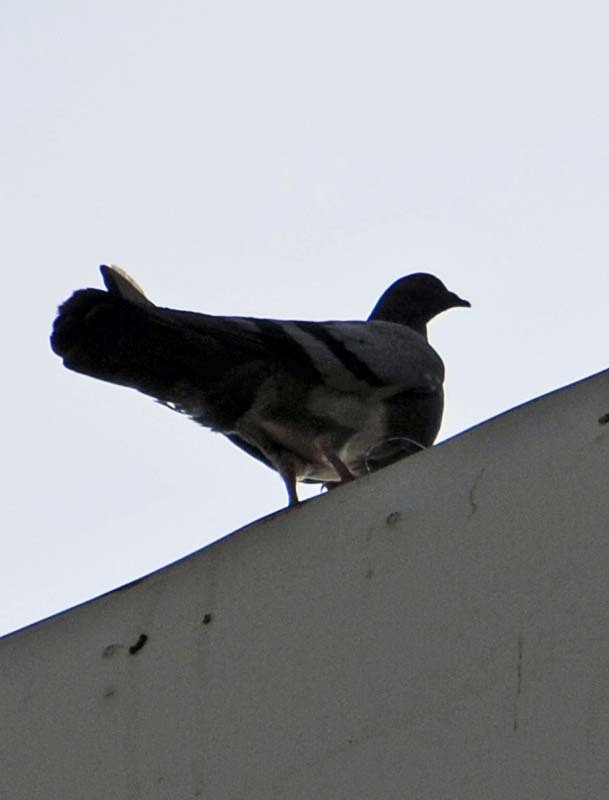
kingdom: Animalia
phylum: Chordata
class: Aves
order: Columbiformes
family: Columbidae
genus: Columba
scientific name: Columba livia
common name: Rock pigeon
